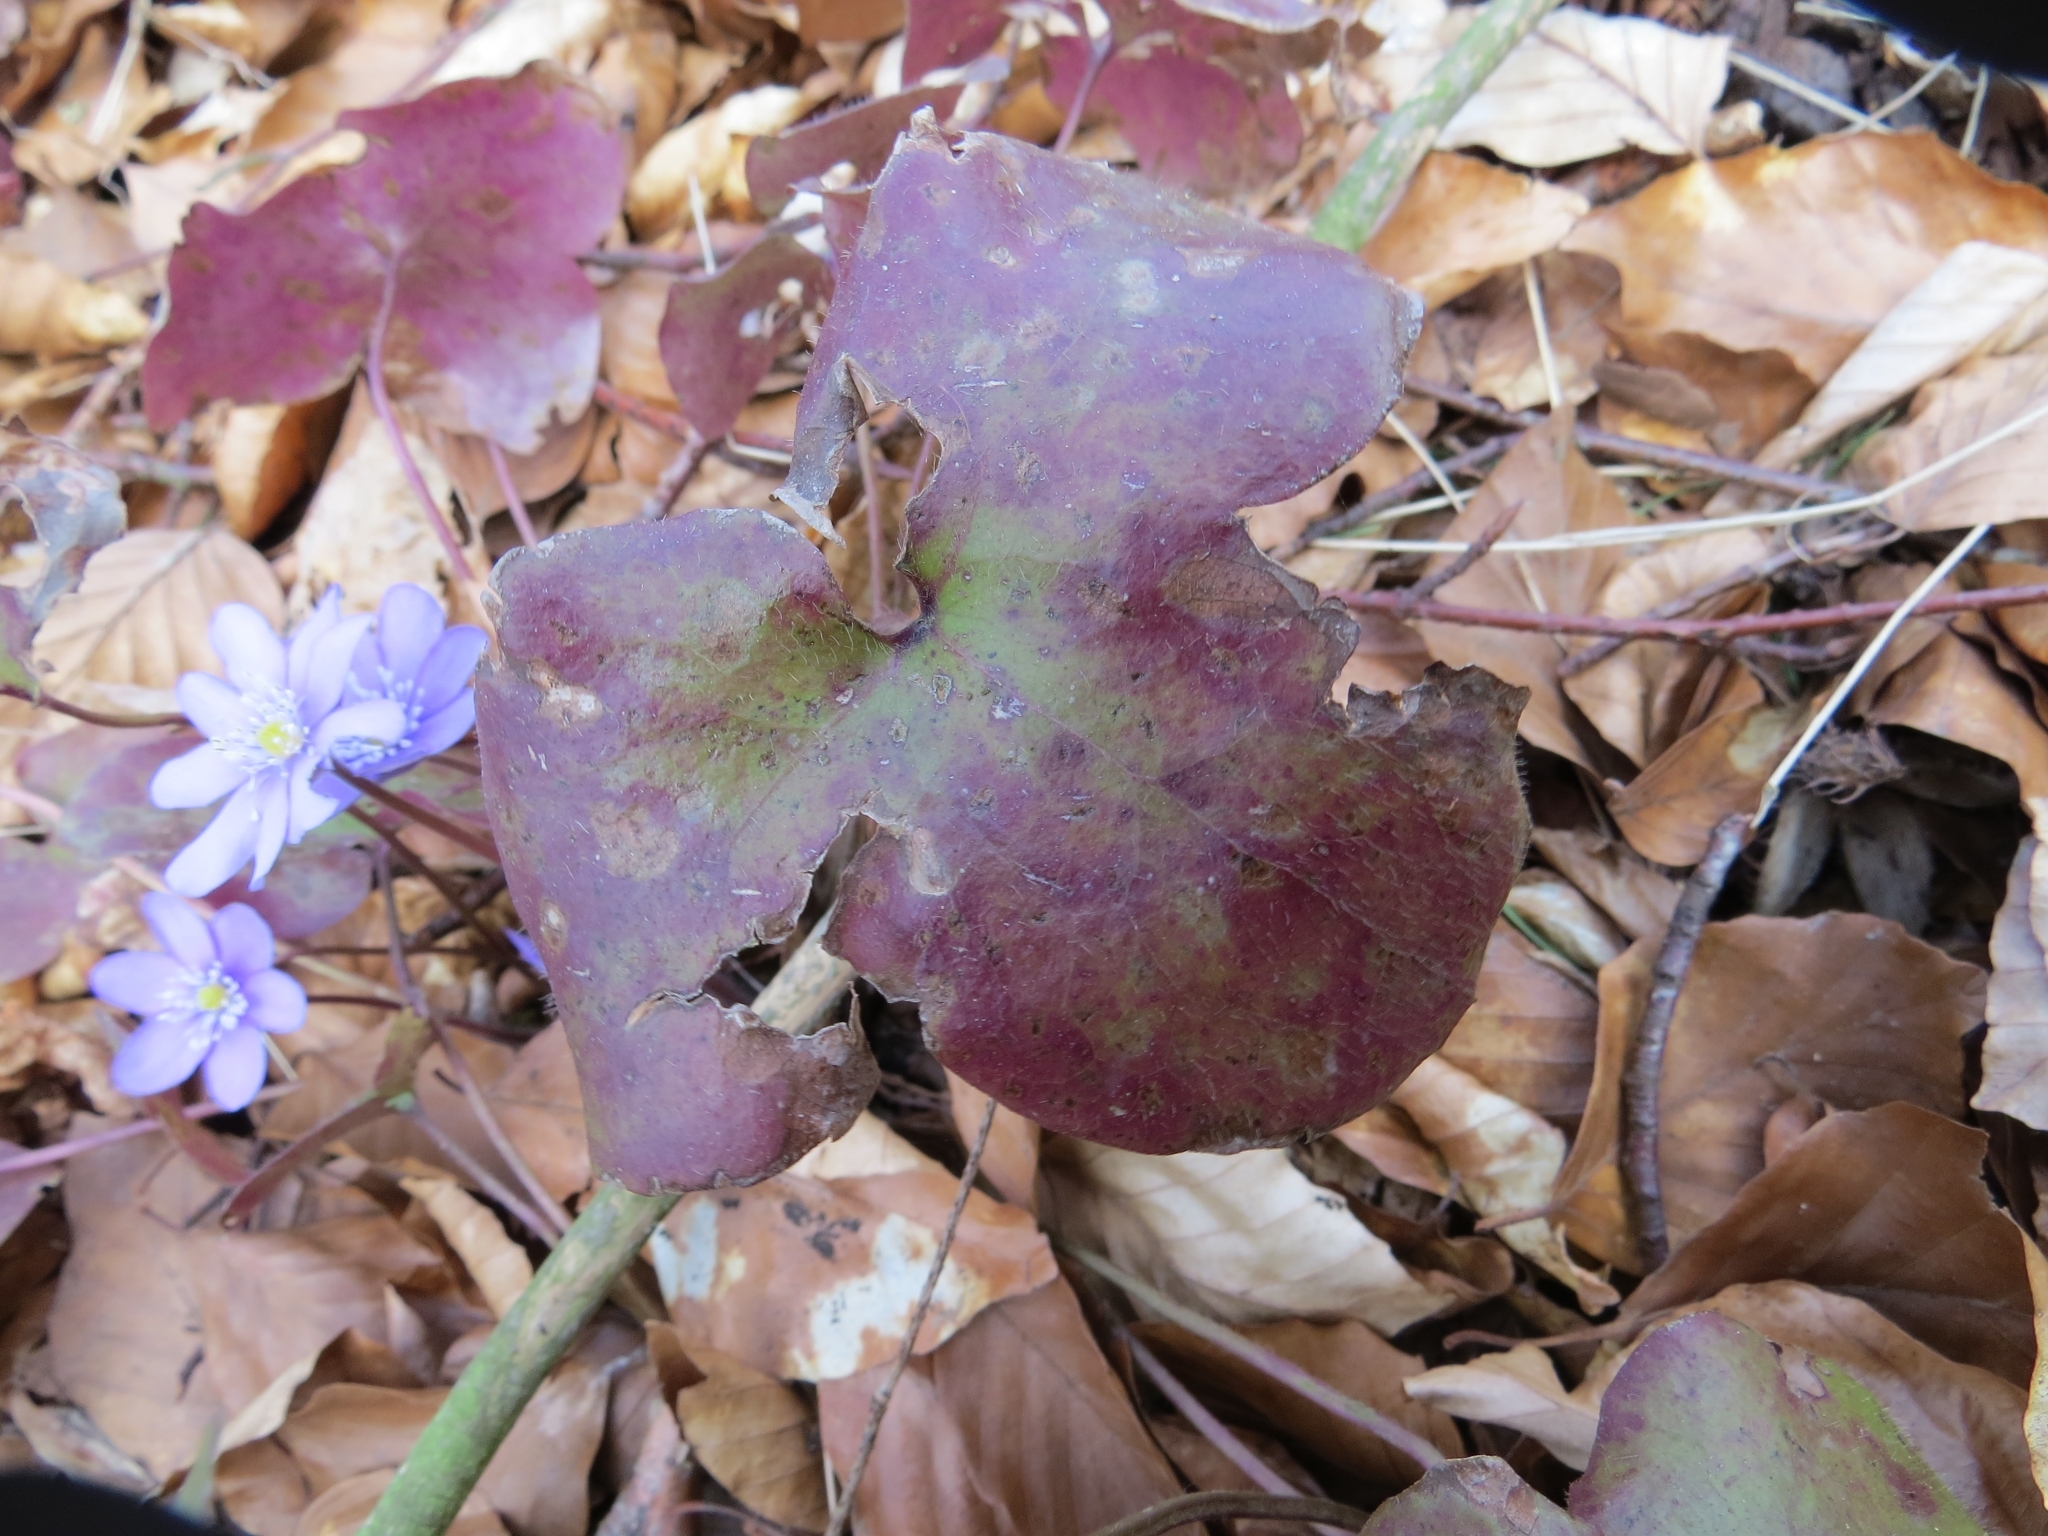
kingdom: Plantae
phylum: Tracheophyta
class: Magnoliopsida
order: Ranunculales
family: Ranunculaceae
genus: Hepatica
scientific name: Hepatica nobilis
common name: Liverleaf
